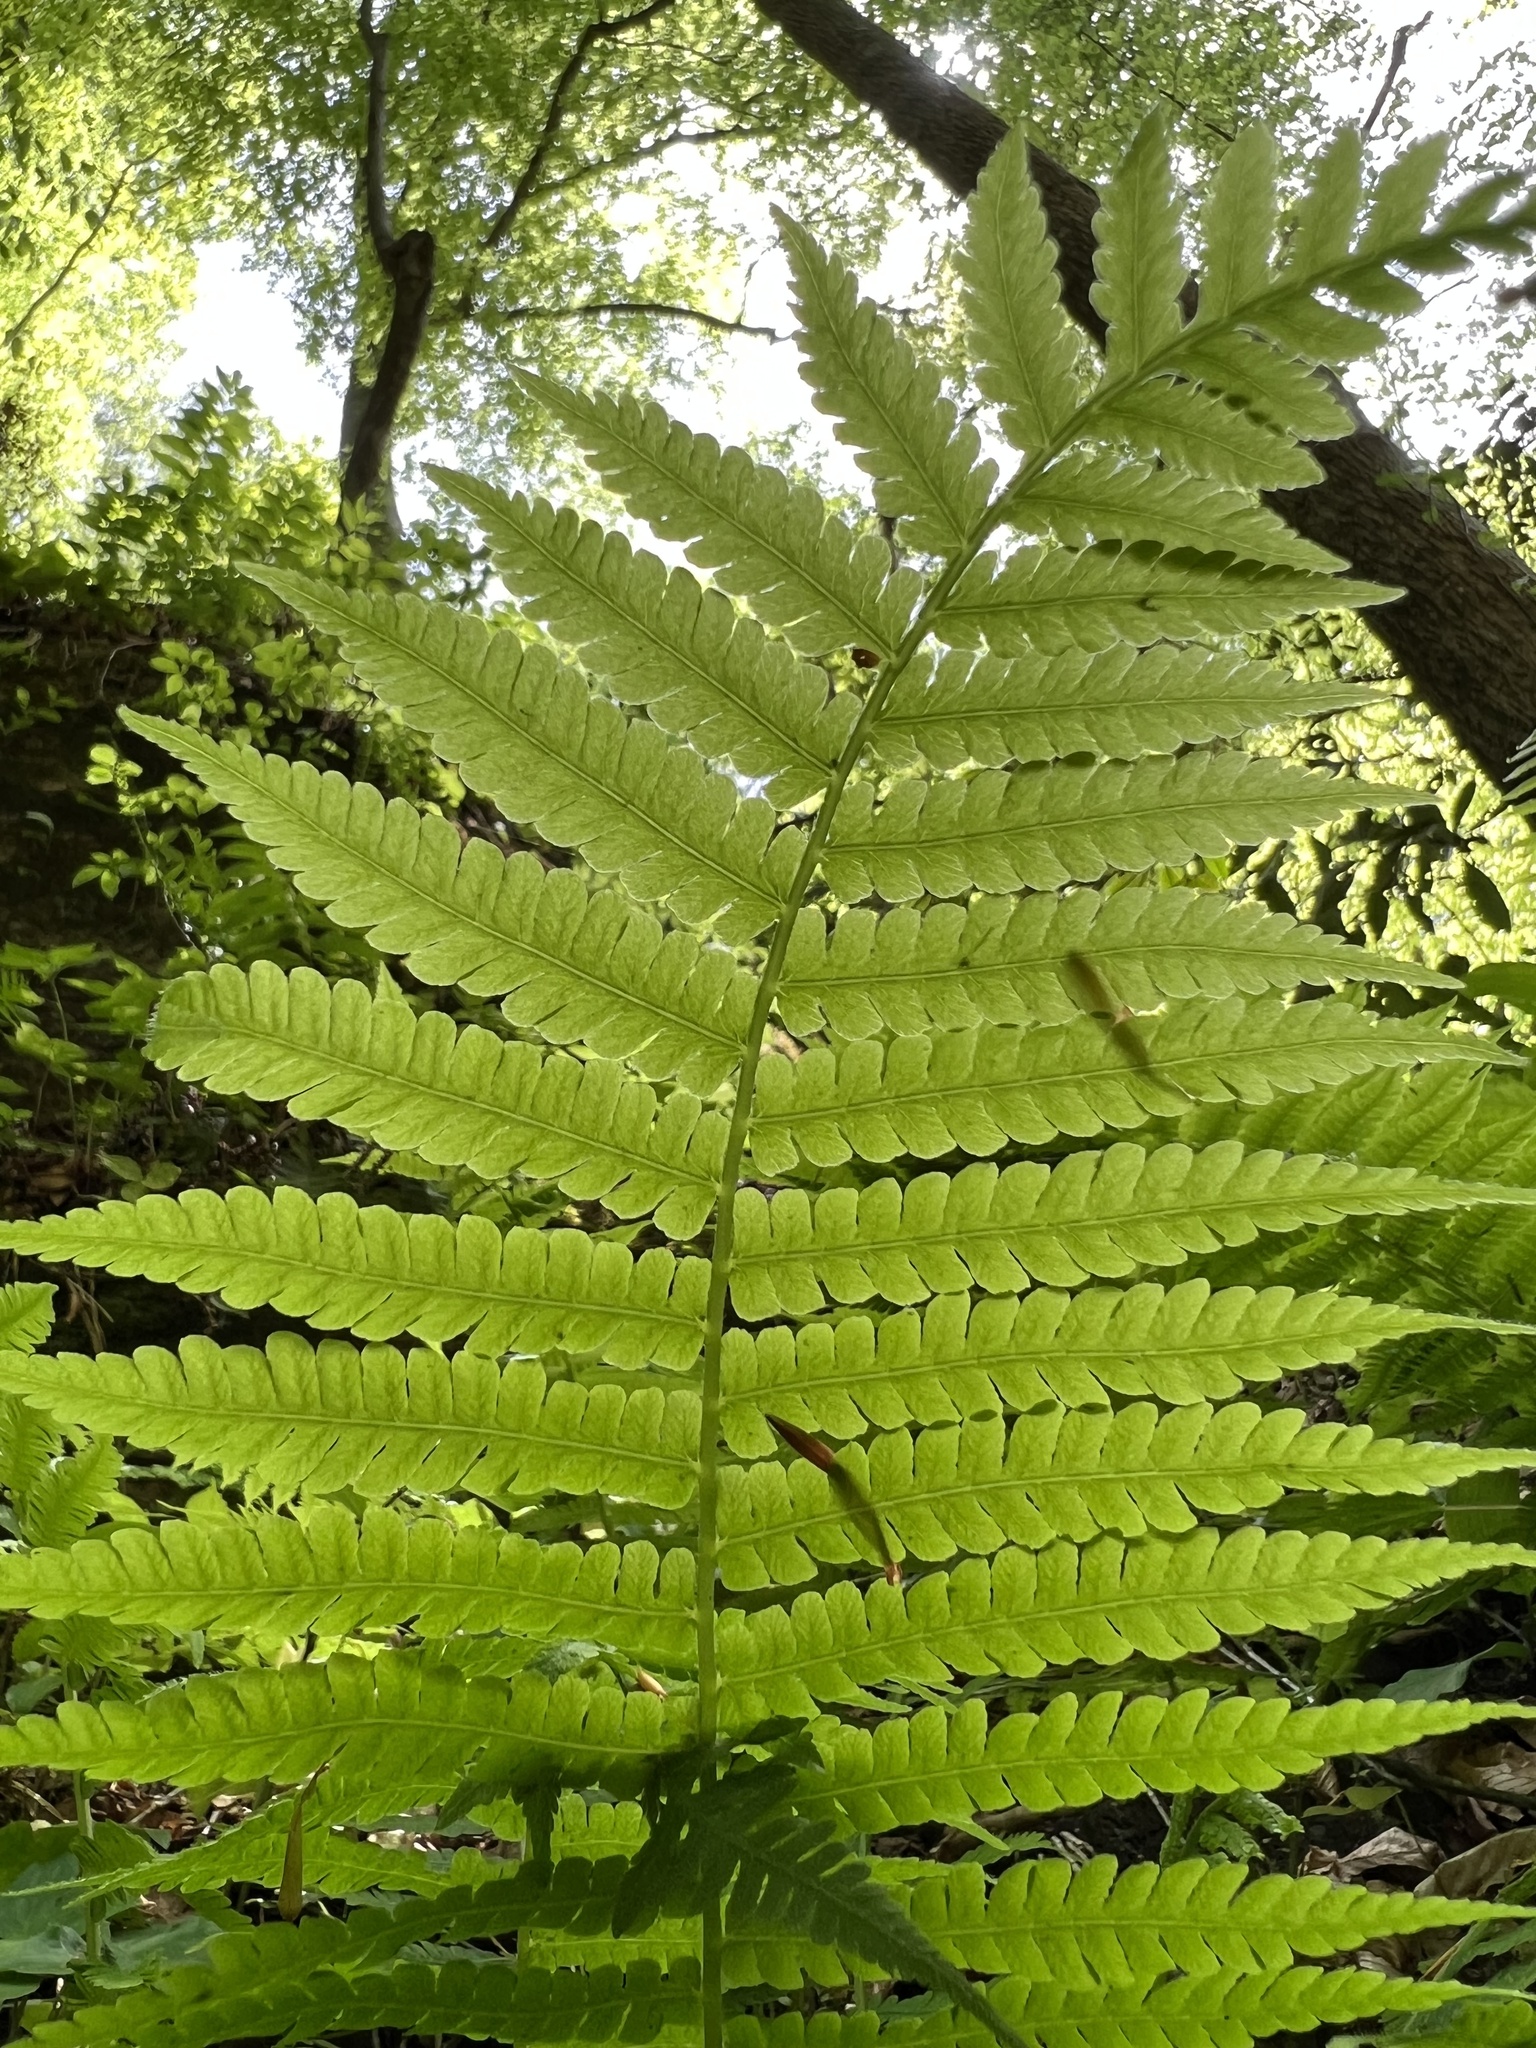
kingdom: Plantae
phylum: Tracheophyta
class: Polypodiopsida
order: Polypodiales
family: Athyriaceae
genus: Deparia
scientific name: Deparia acrostichoides
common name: Silver false spleenwort
